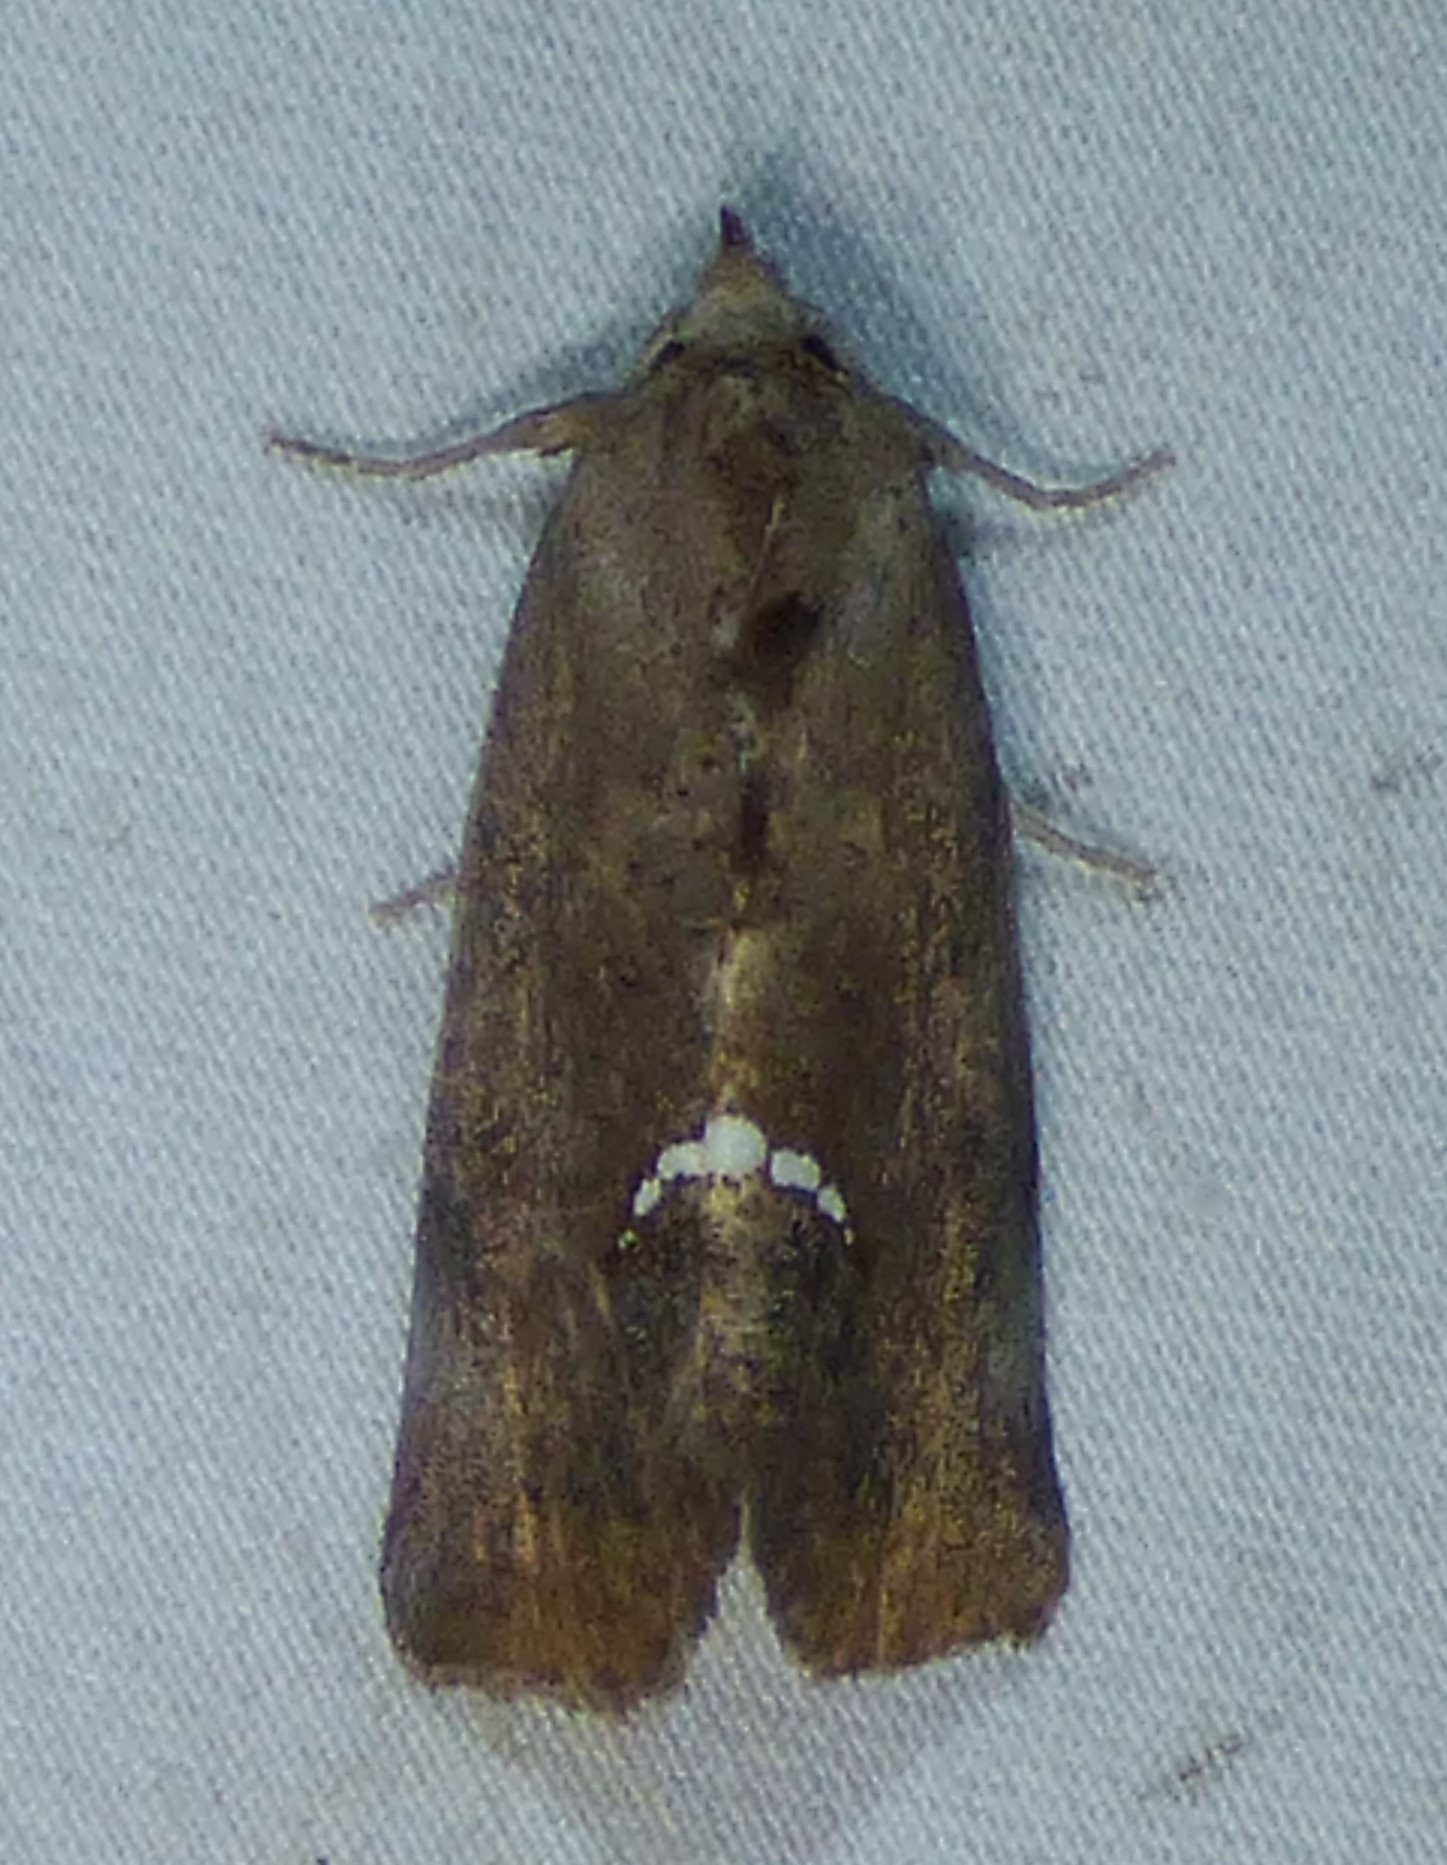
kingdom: Animalia
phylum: Arthropoda
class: Insecta
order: Lepidoptera
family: Erebidae
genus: Hypsoropha
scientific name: Hypsoropha hormos
